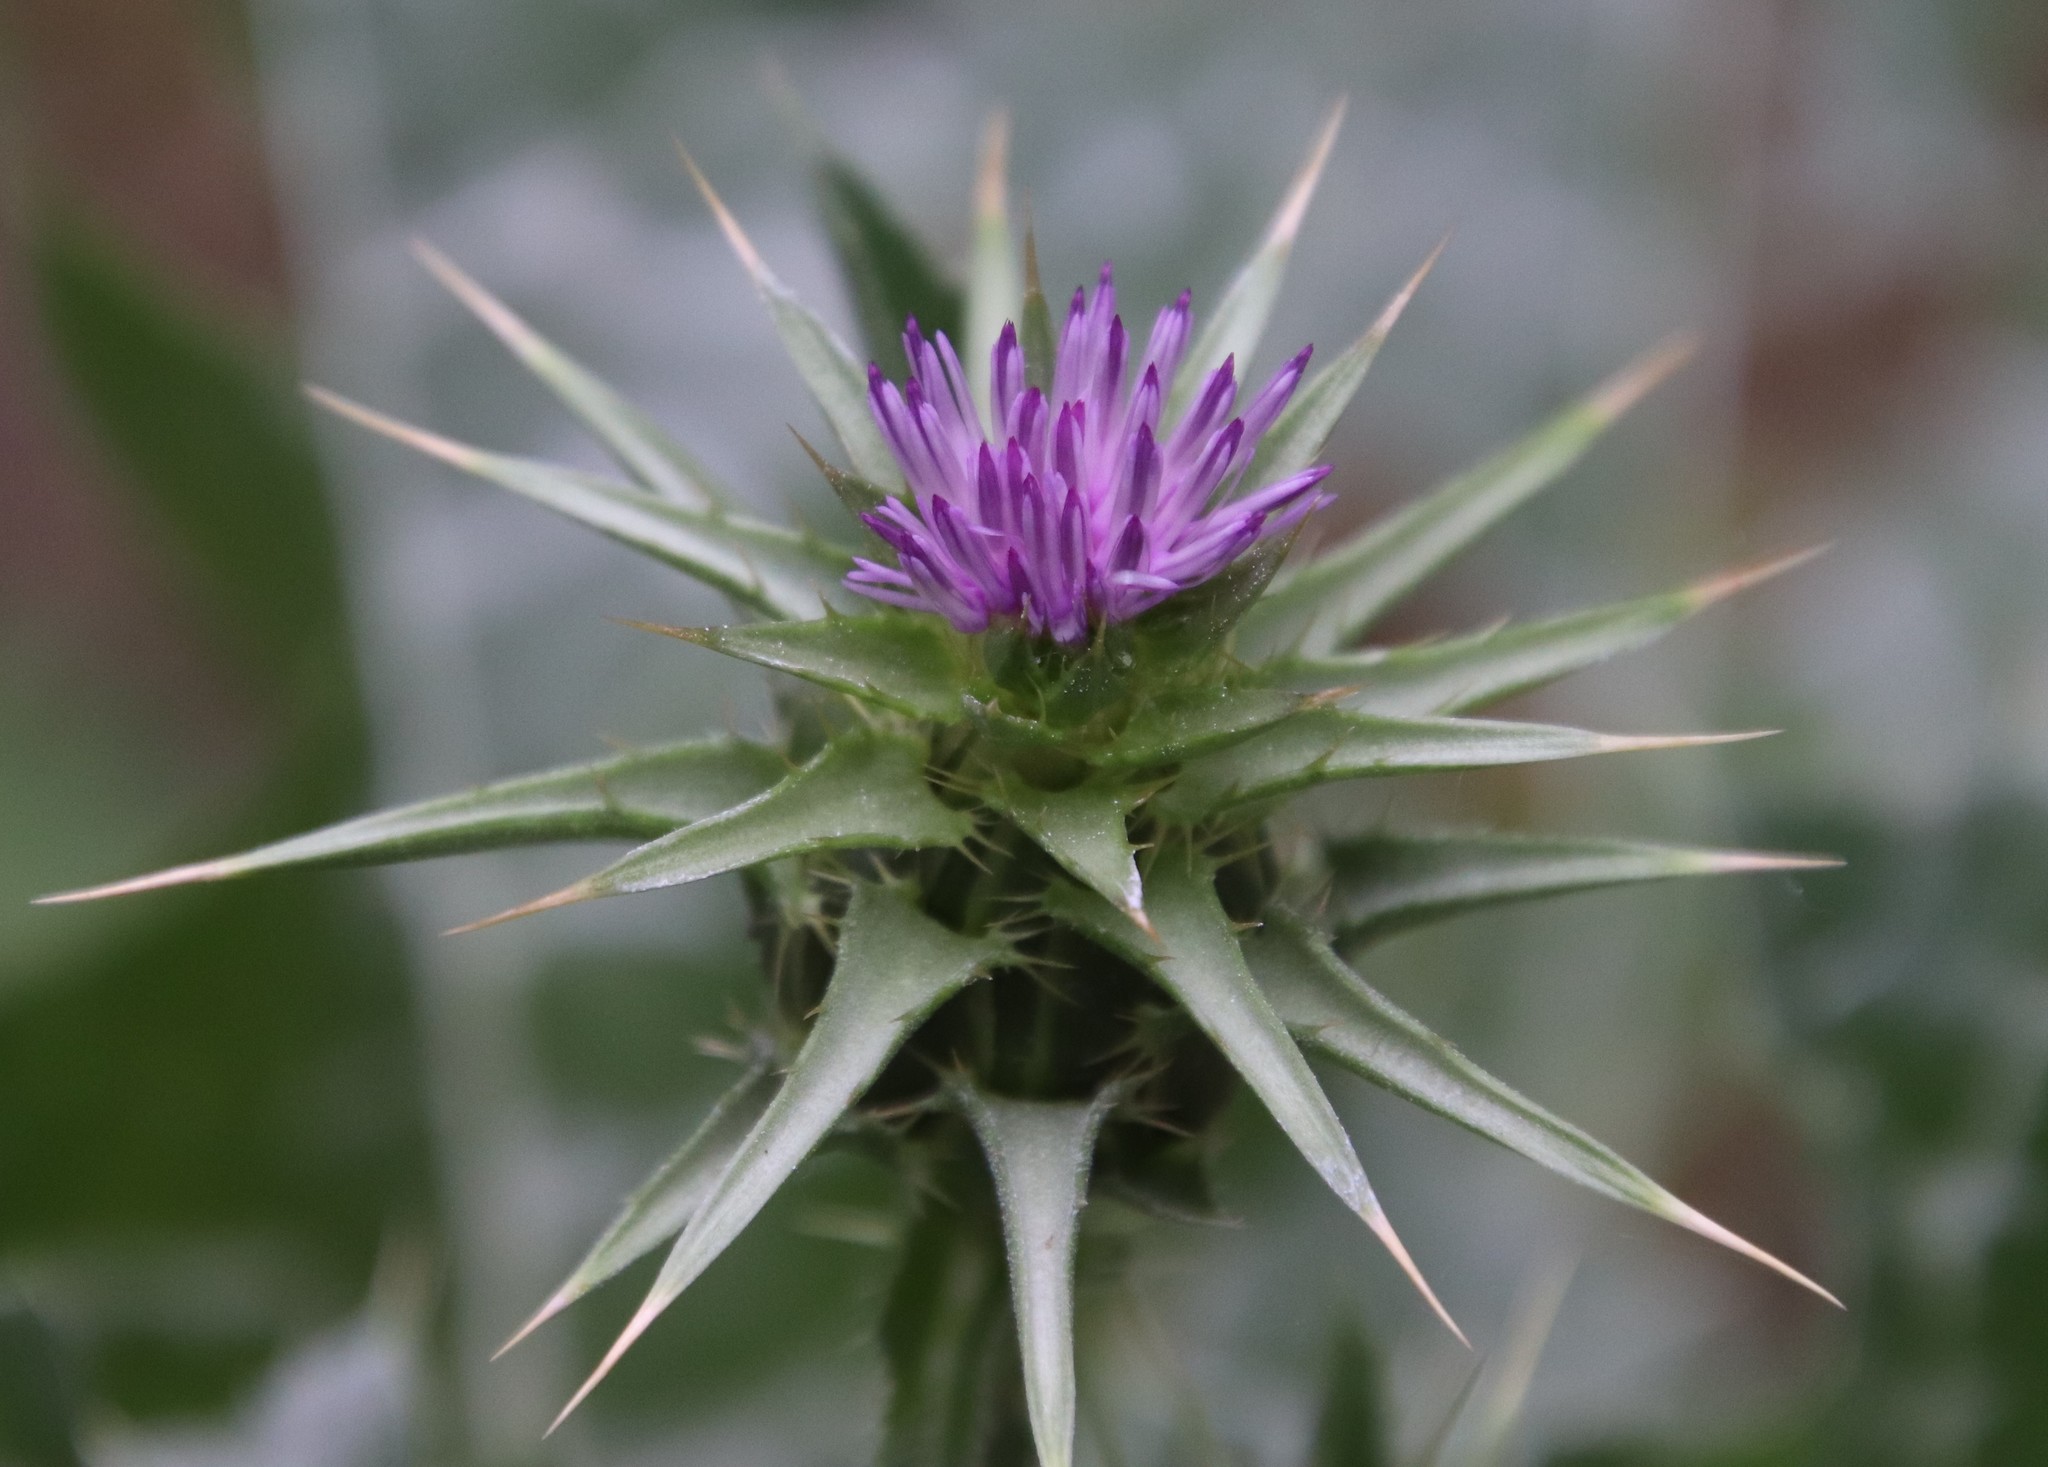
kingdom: Plantae
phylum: Tracheophyta
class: Magnoliopsida
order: Asterales
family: Asteraceae
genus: Silybum
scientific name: Silybum marianum
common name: Milk thistle
